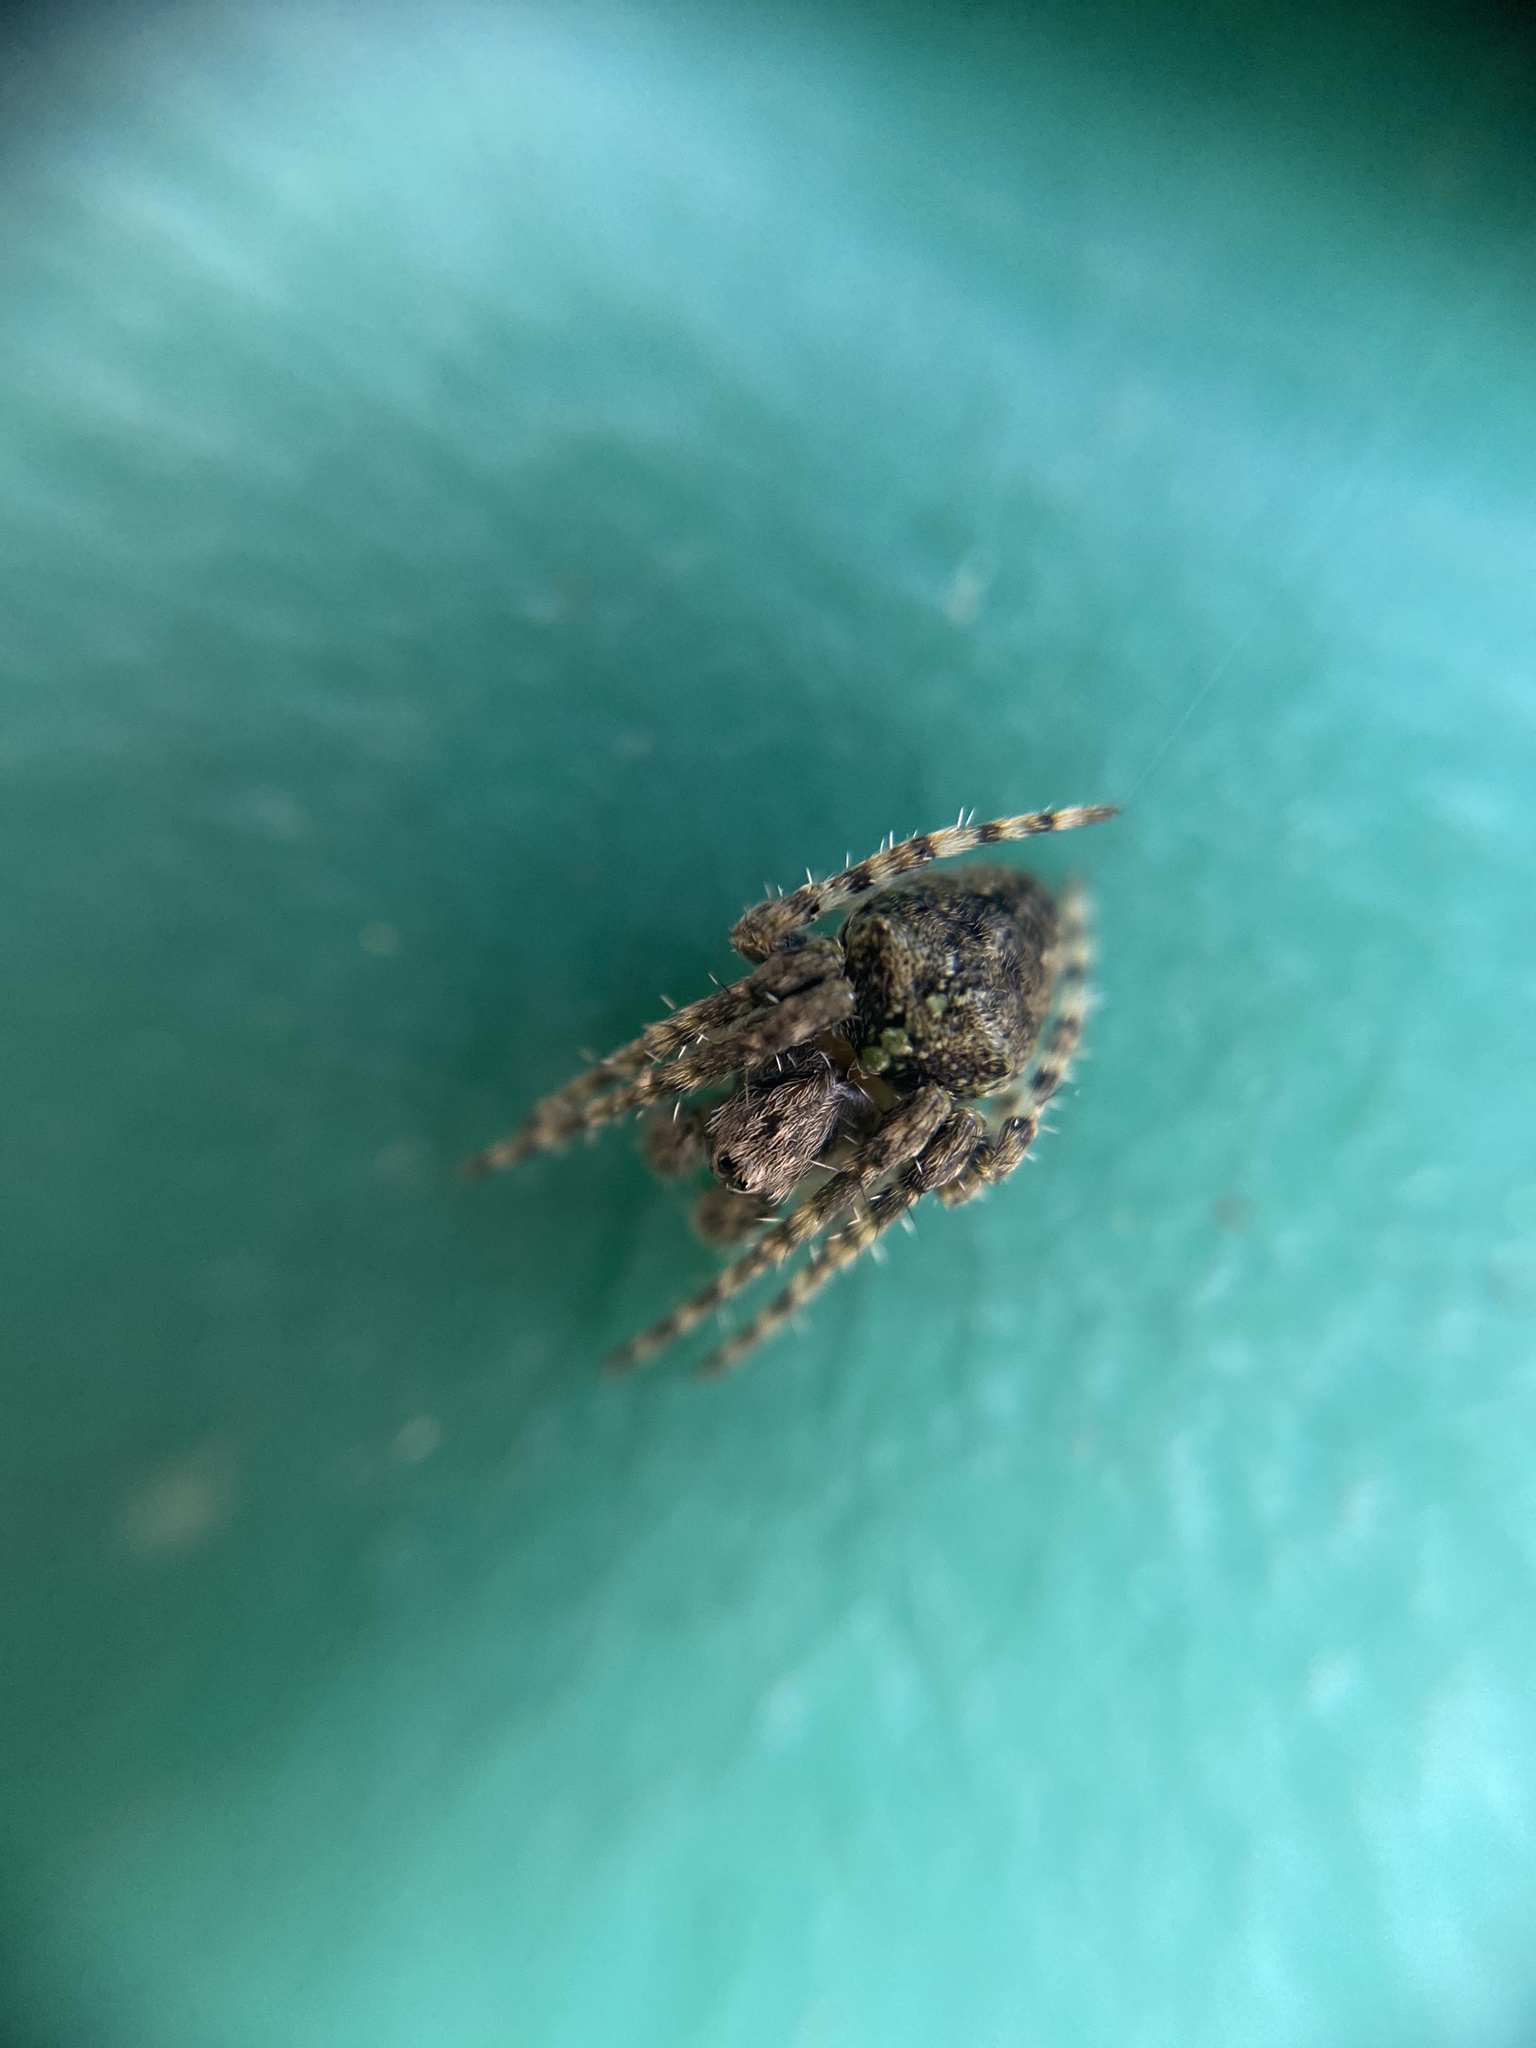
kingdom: Animalia
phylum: Arthropoda
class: Arachnida
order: Araneae
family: Araneidae
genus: Gibbaranea
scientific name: Gibbaranea gibbosa
